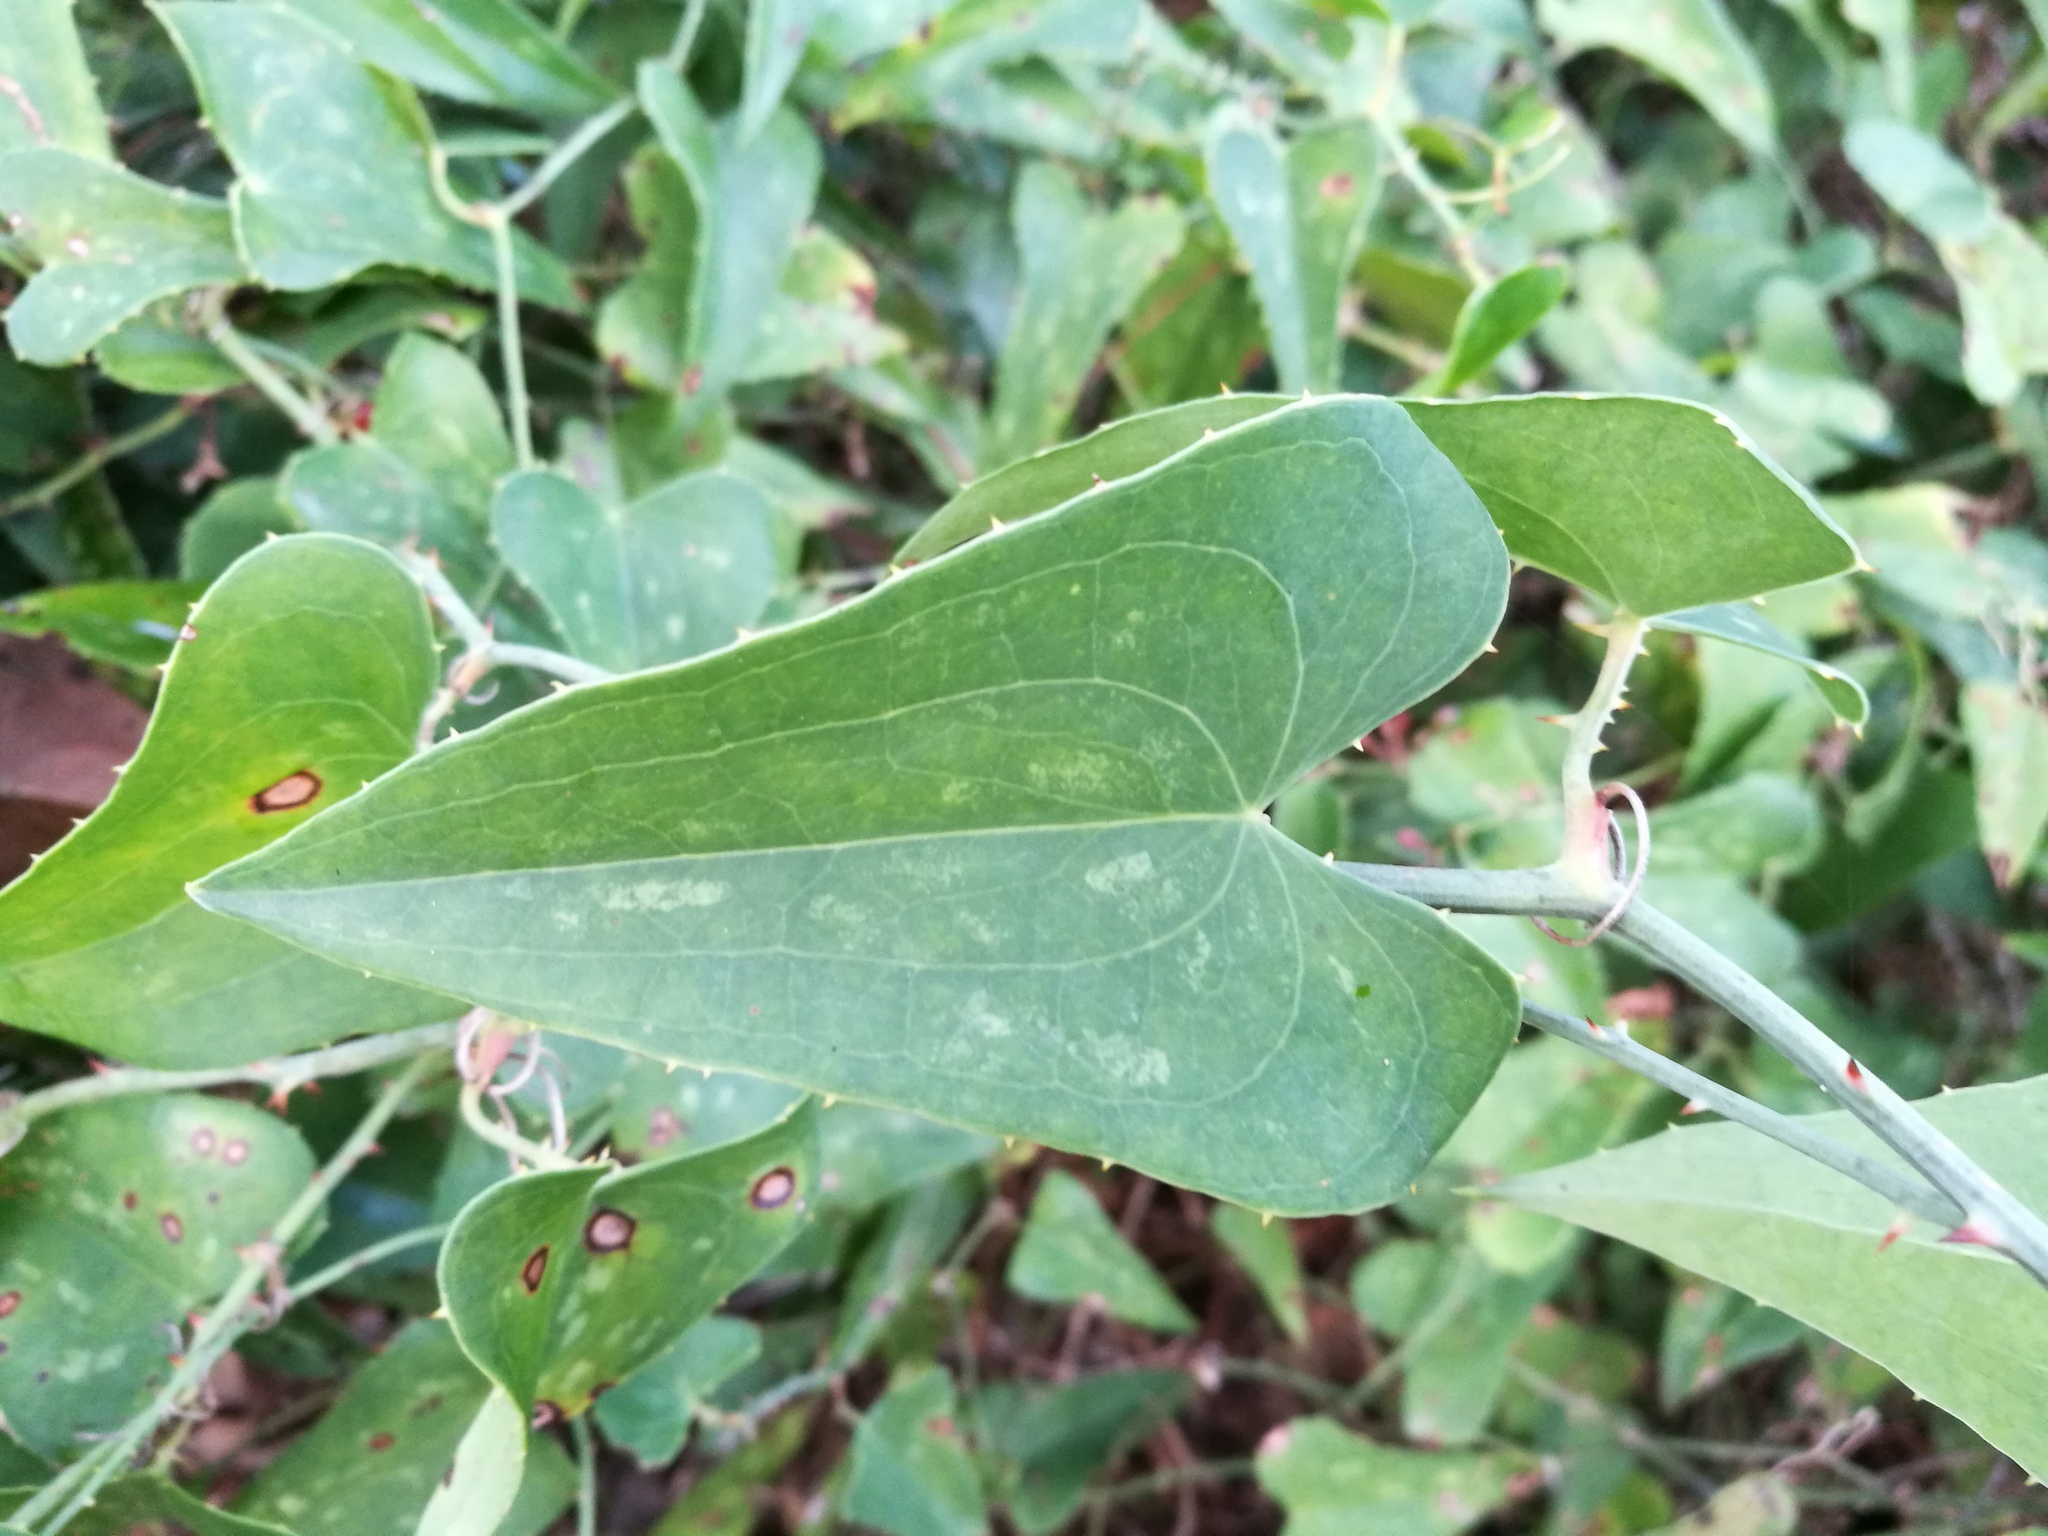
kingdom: Plantae
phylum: Tracheophyta
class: Liliopsida
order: Liliales
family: Smilacaceae
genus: Smilax
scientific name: Smilax aspera
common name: Common smilax
